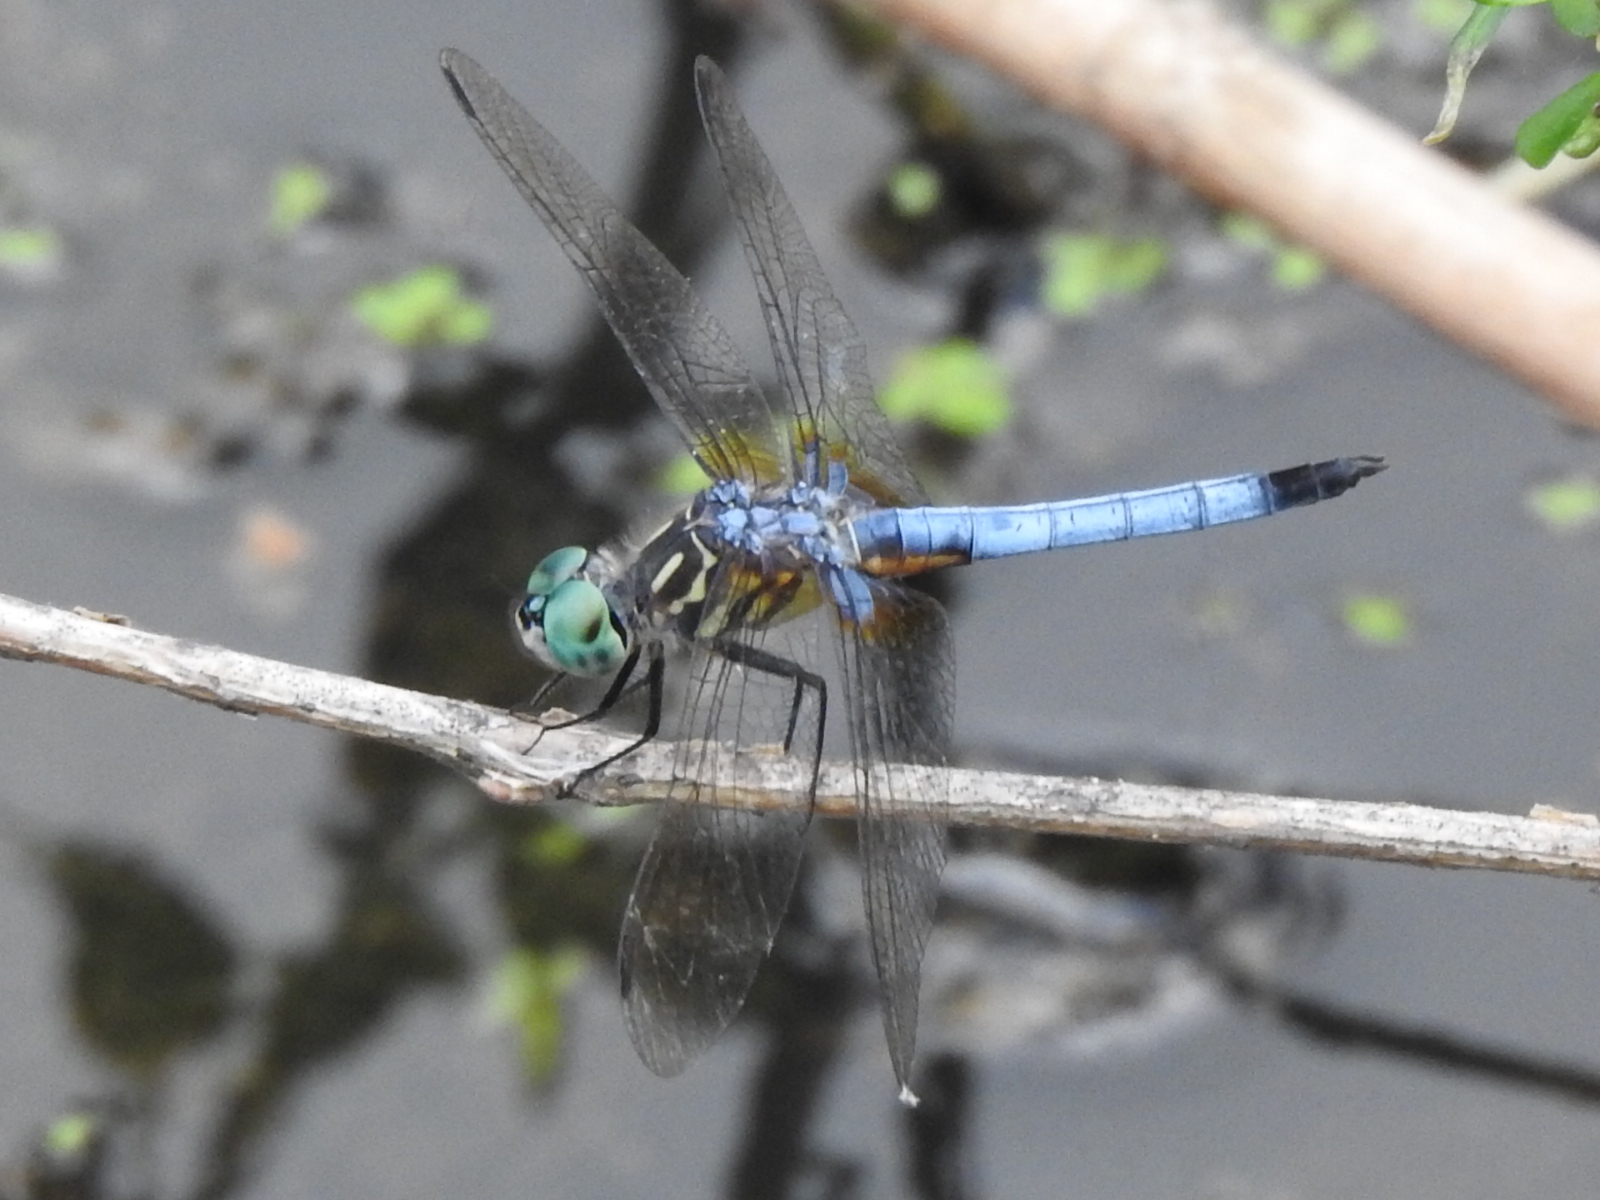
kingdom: Animalia
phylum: Arthropoda
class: Insecta
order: Odonata
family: Libellulidae
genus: Pachydiplax
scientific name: Pachydiplax longipennis
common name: Blue dasher
